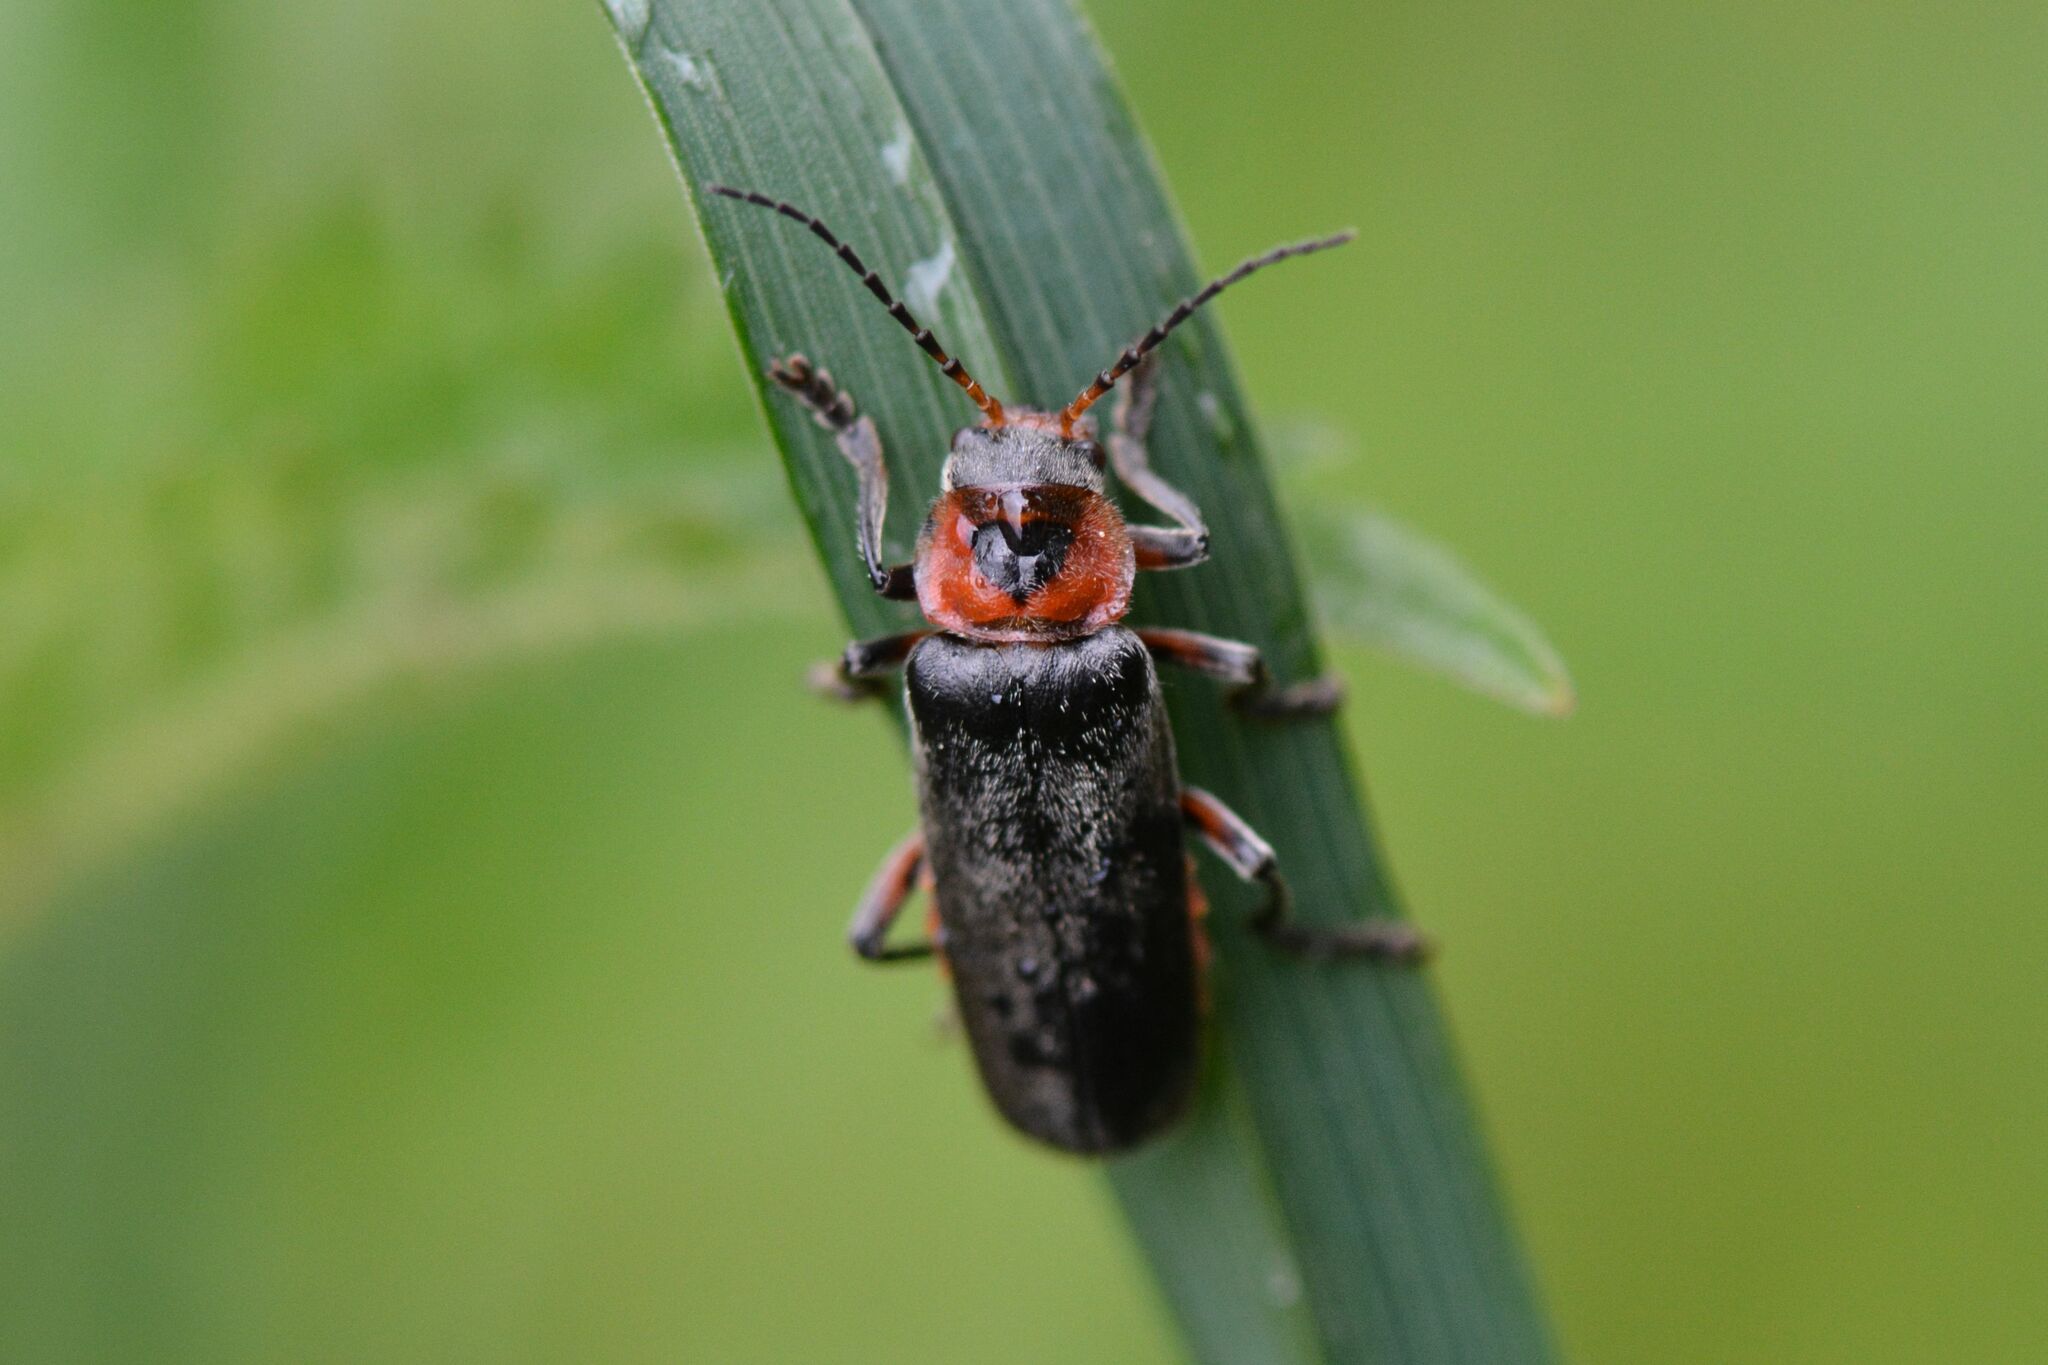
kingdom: Animalia
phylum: Arthropoda
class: Insecta
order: Coleoptera
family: Cantharidae
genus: Cantharis
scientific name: Cantharis rustica
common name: Soldier beetle
